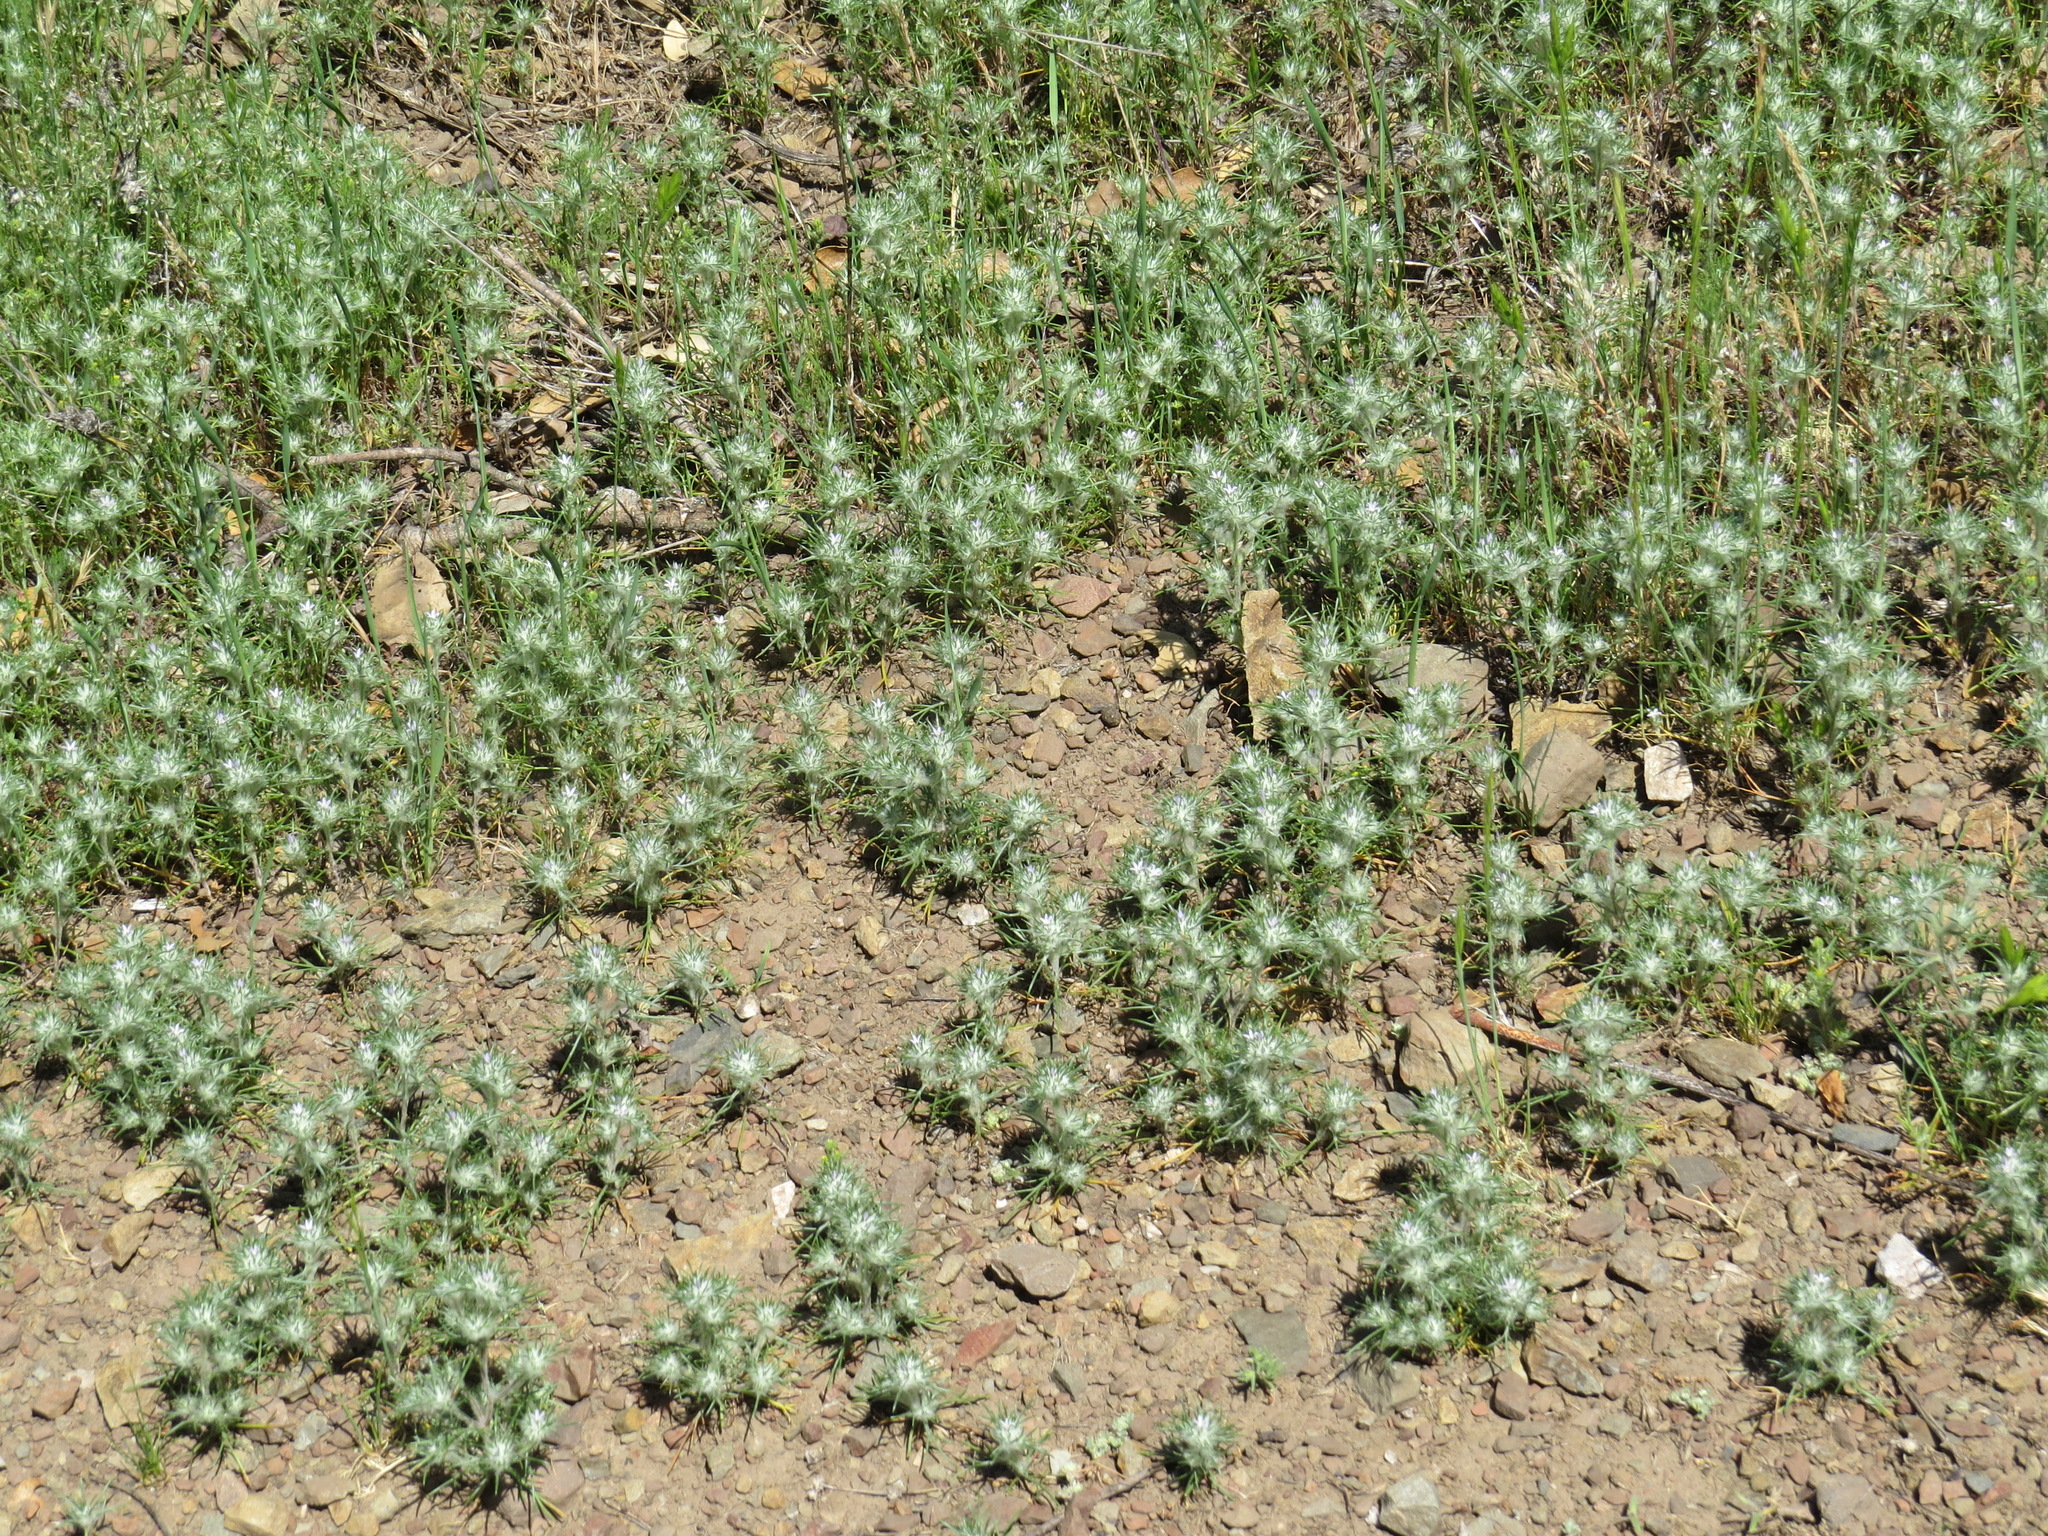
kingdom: Plantae
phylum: Tracheophyta
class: Magnoliopsida
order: Ericales
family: Polemoniaceae
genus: Eriastrum
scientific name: Eriastrum abramsii
